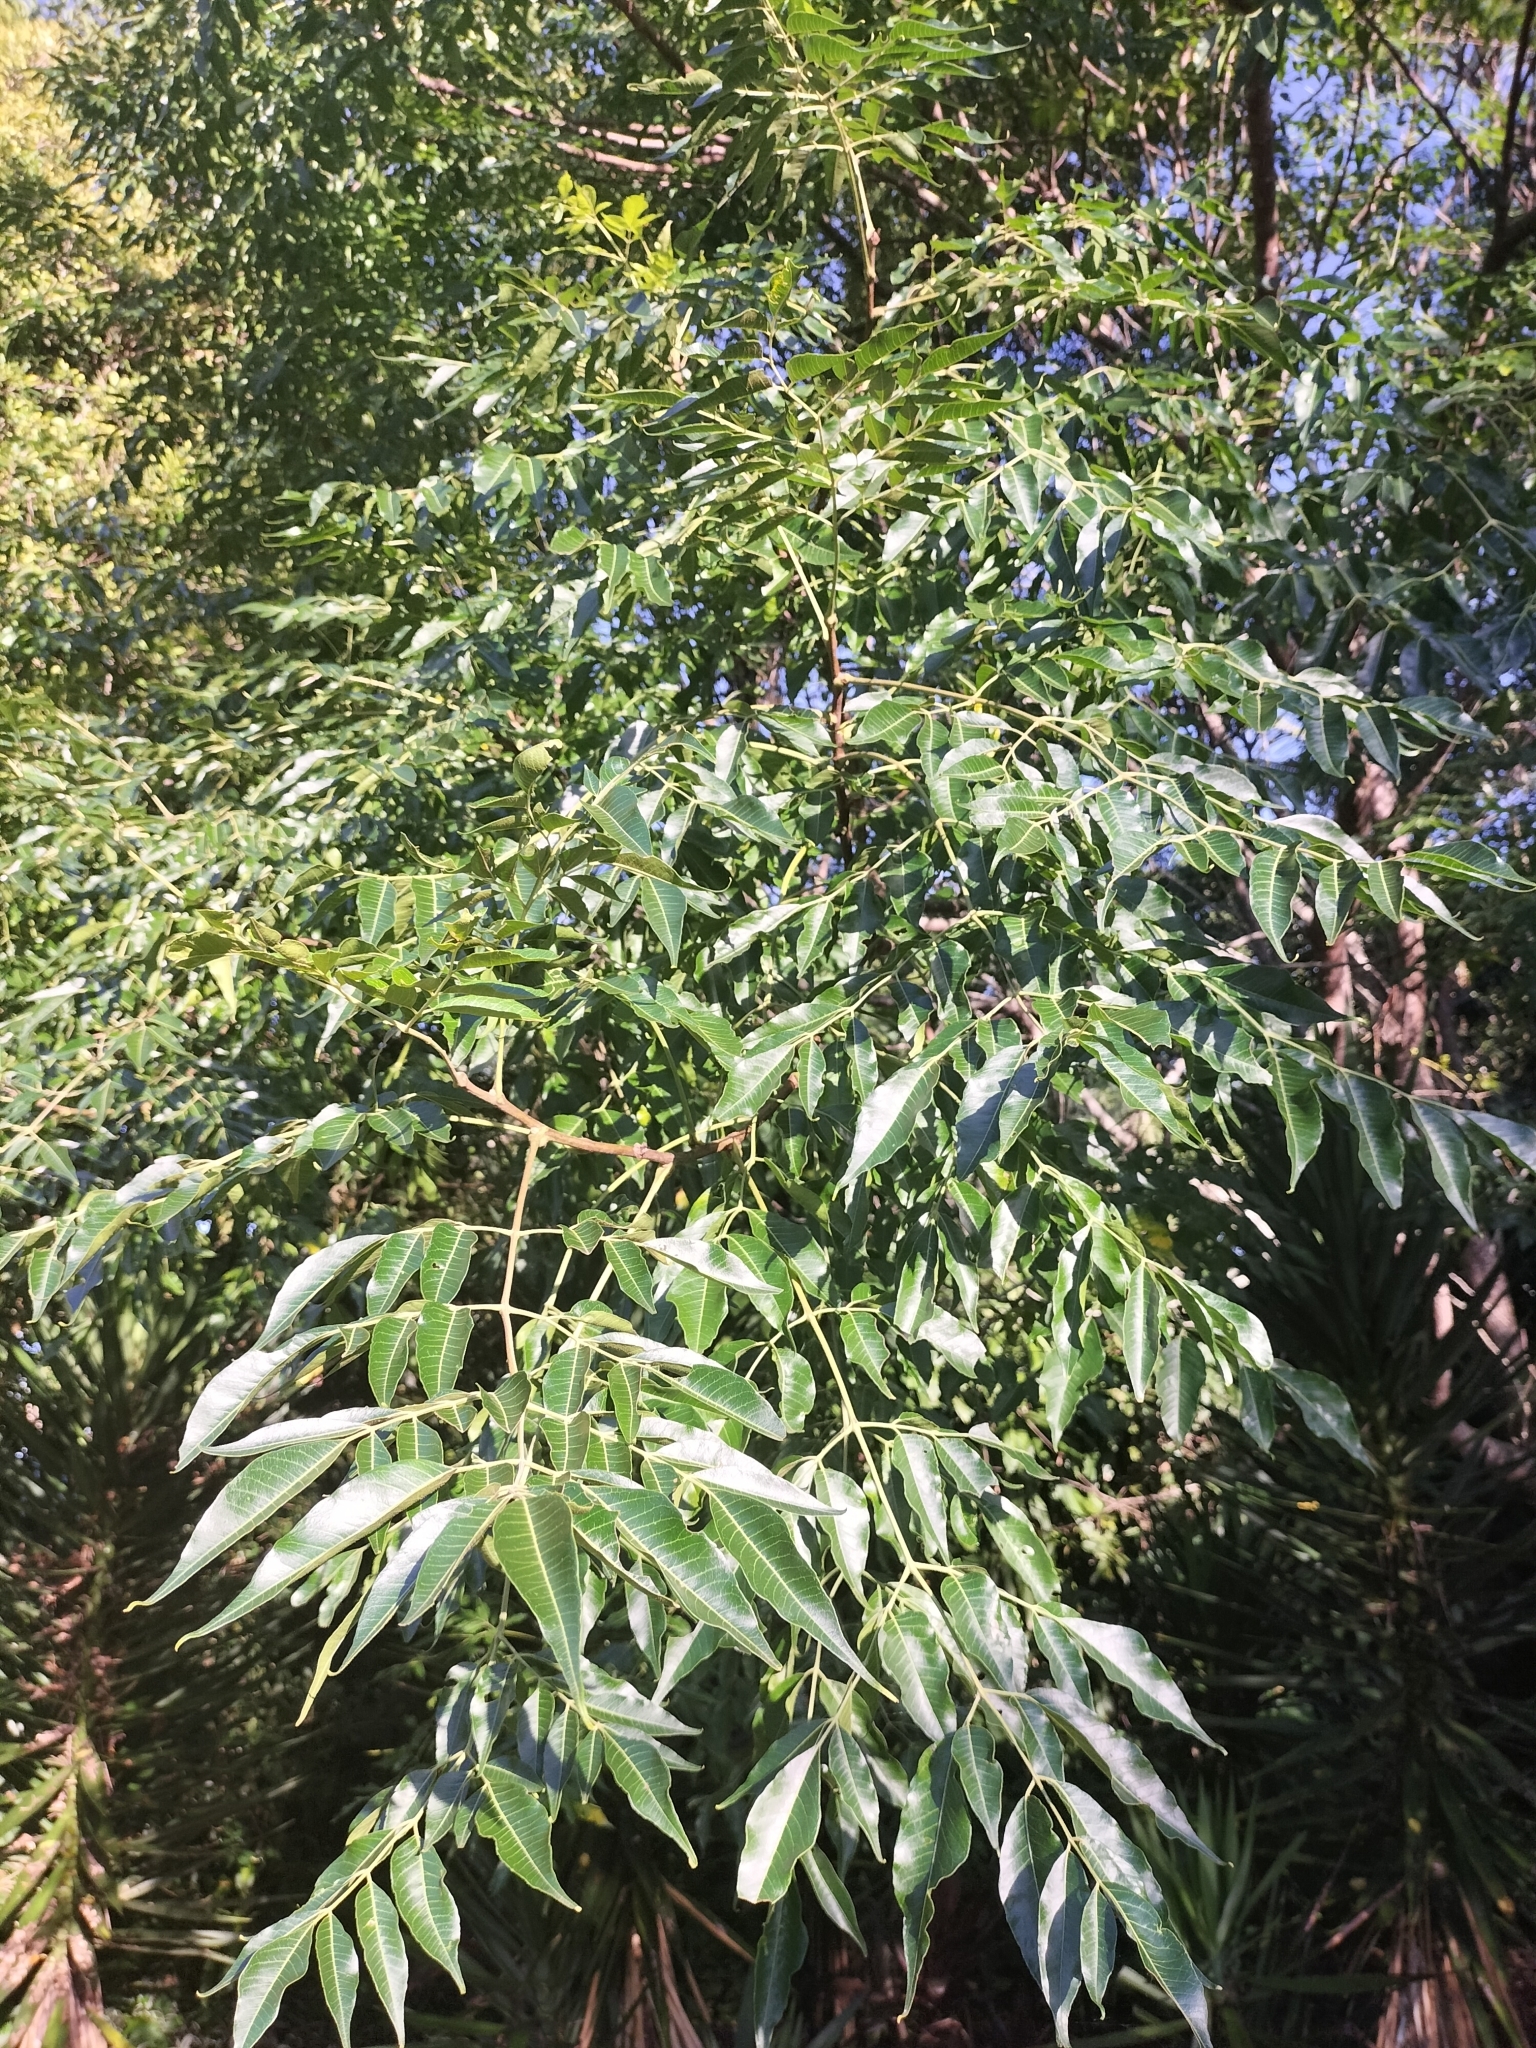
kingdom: Plantae
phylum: Tracheophyta
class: Magnoliopsida
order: Sapindales
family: Meliaceae
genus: Melia
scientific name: Melia azedarach
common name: Chinaberrytree
